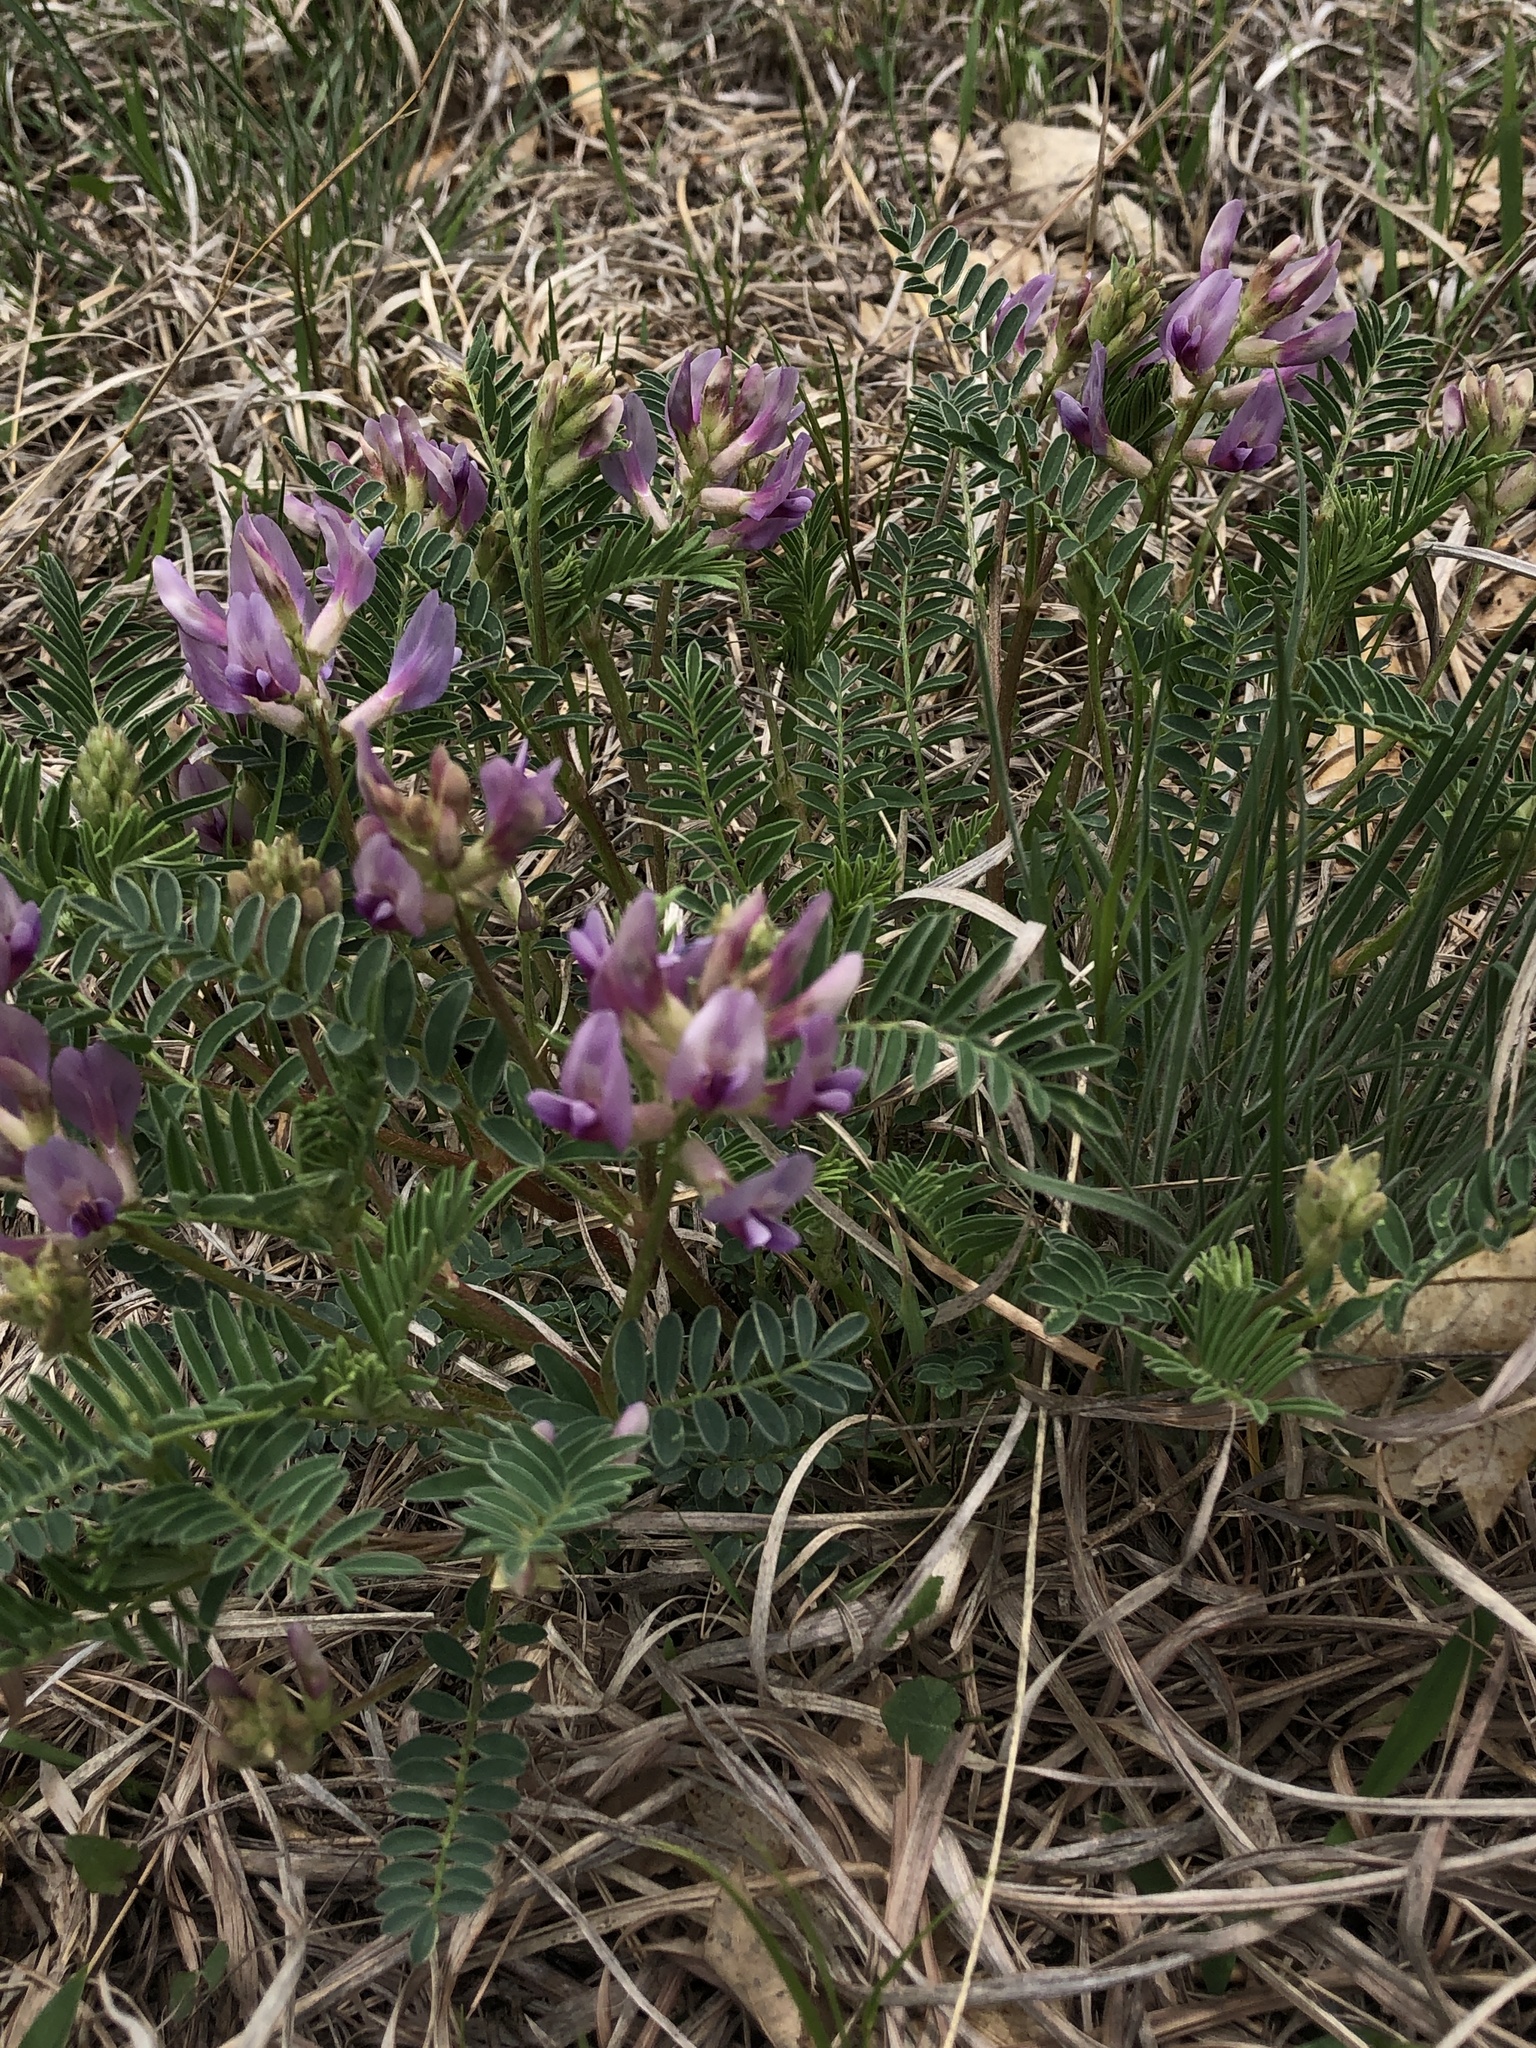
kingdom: Plantae
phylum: Tracheophyta
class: Magnoliopsida
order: Fabales
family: Fabaceae
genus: Astragalus
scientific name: Astragalus crassicarpus
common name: Ground-plum milk-vetch
